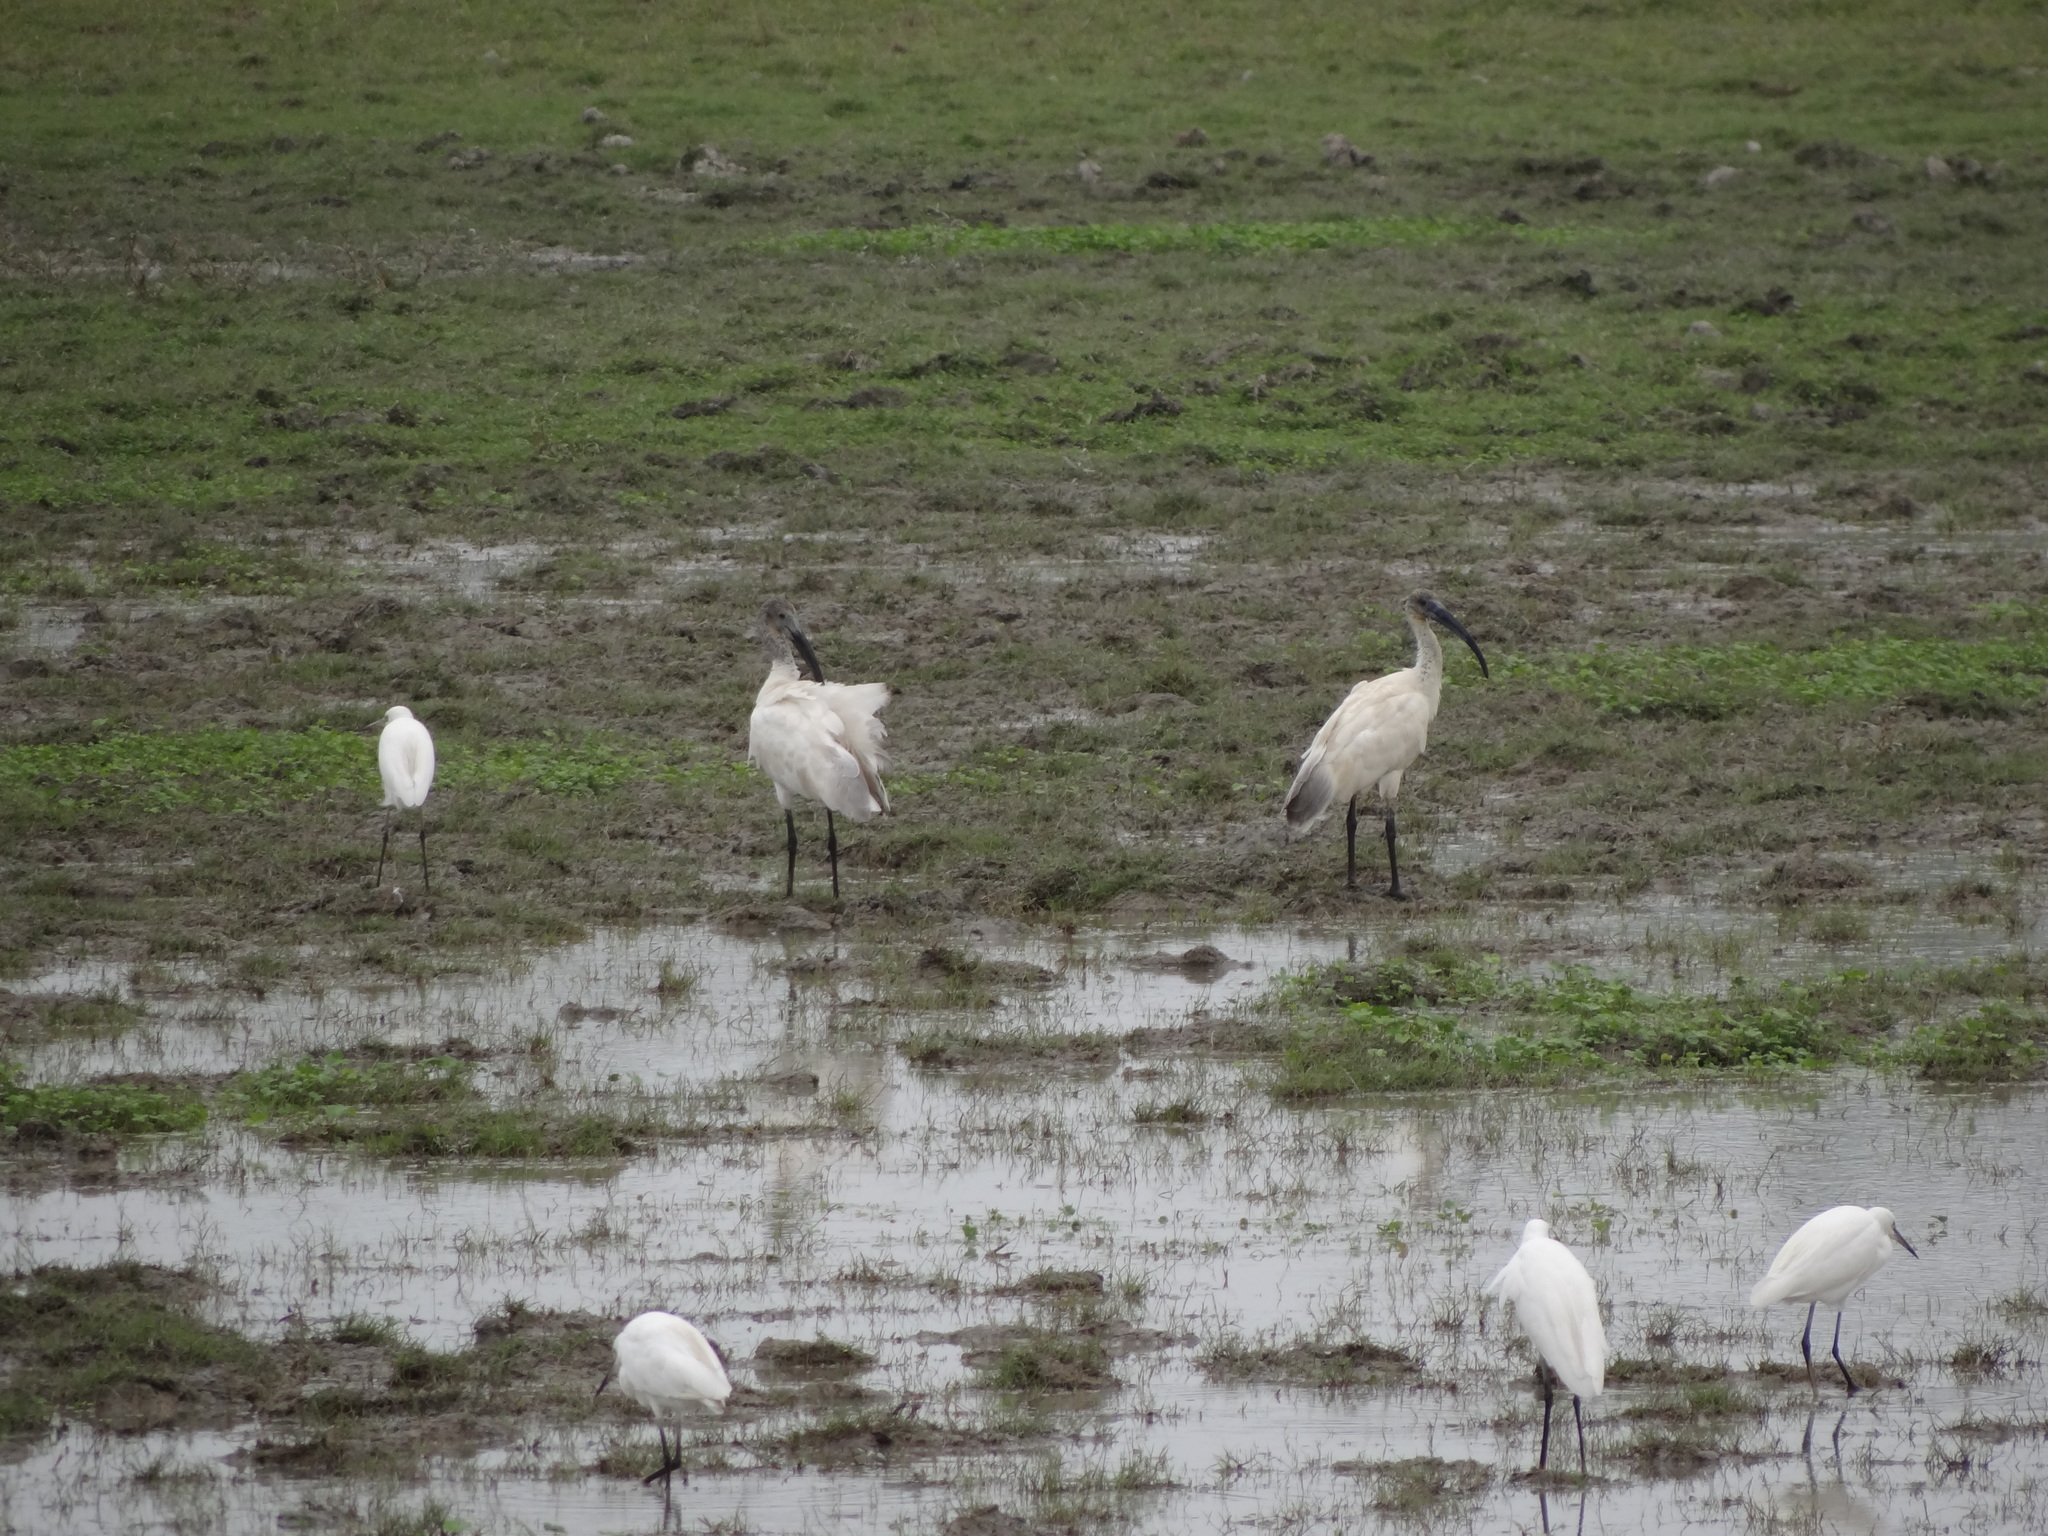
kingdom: Animalia
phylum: Chordata
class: Aves
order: Pelecaniformes
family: Threskiornithidae
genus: Threskiornis
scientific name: Threskiornis melanocephalus
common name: Black-headed ibis
